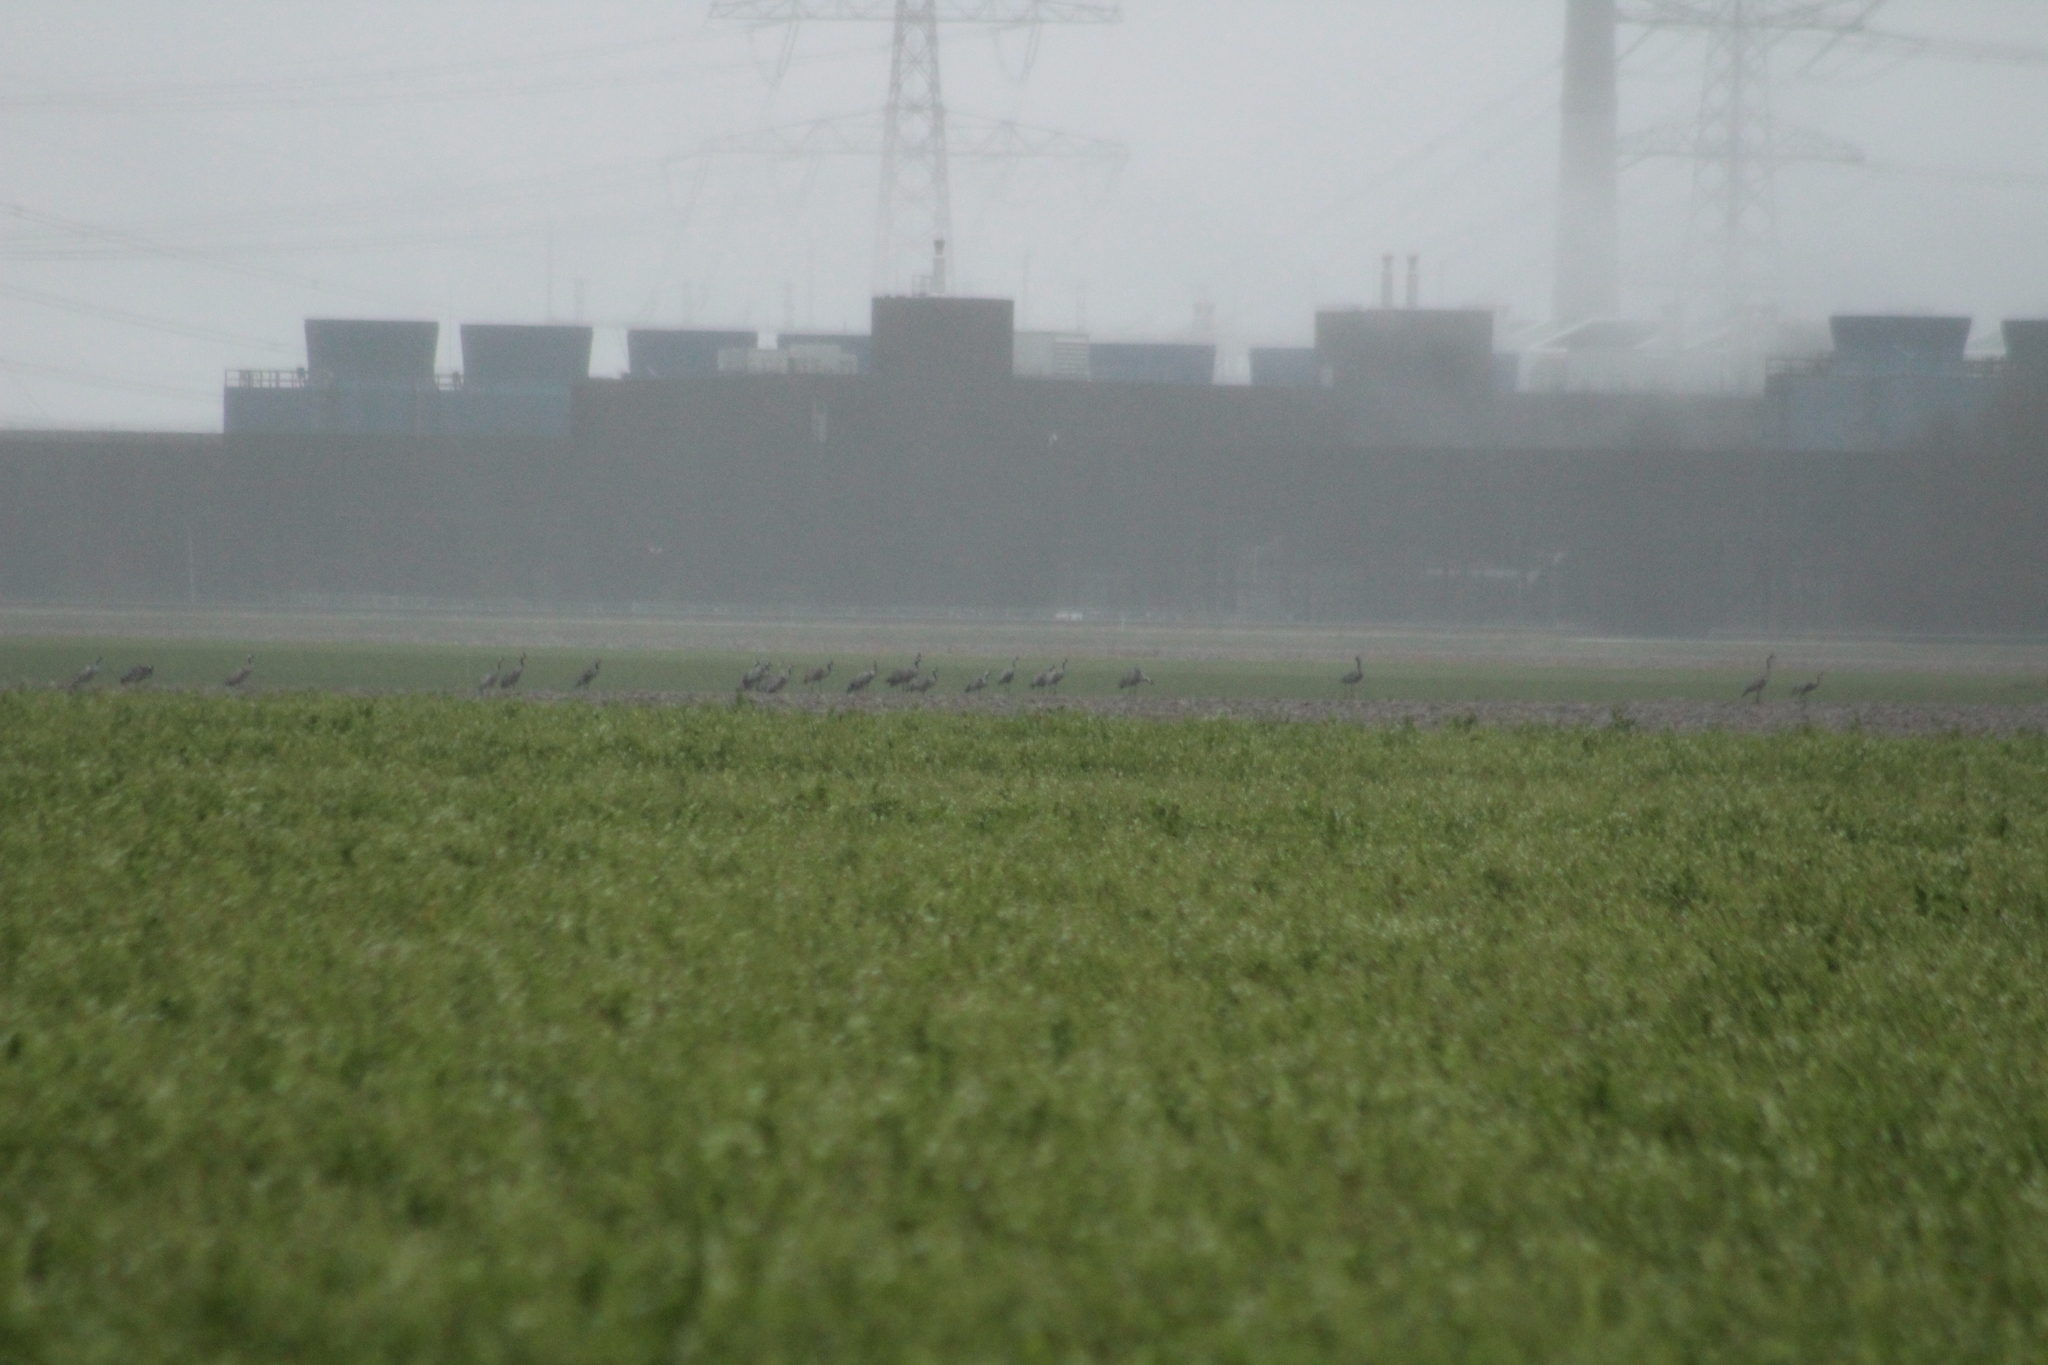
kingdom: Animalia
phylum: Chordata
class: Aves
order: Gruiformes
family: Gruidae
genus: Grus
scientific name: Grus grus
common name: Common crane
